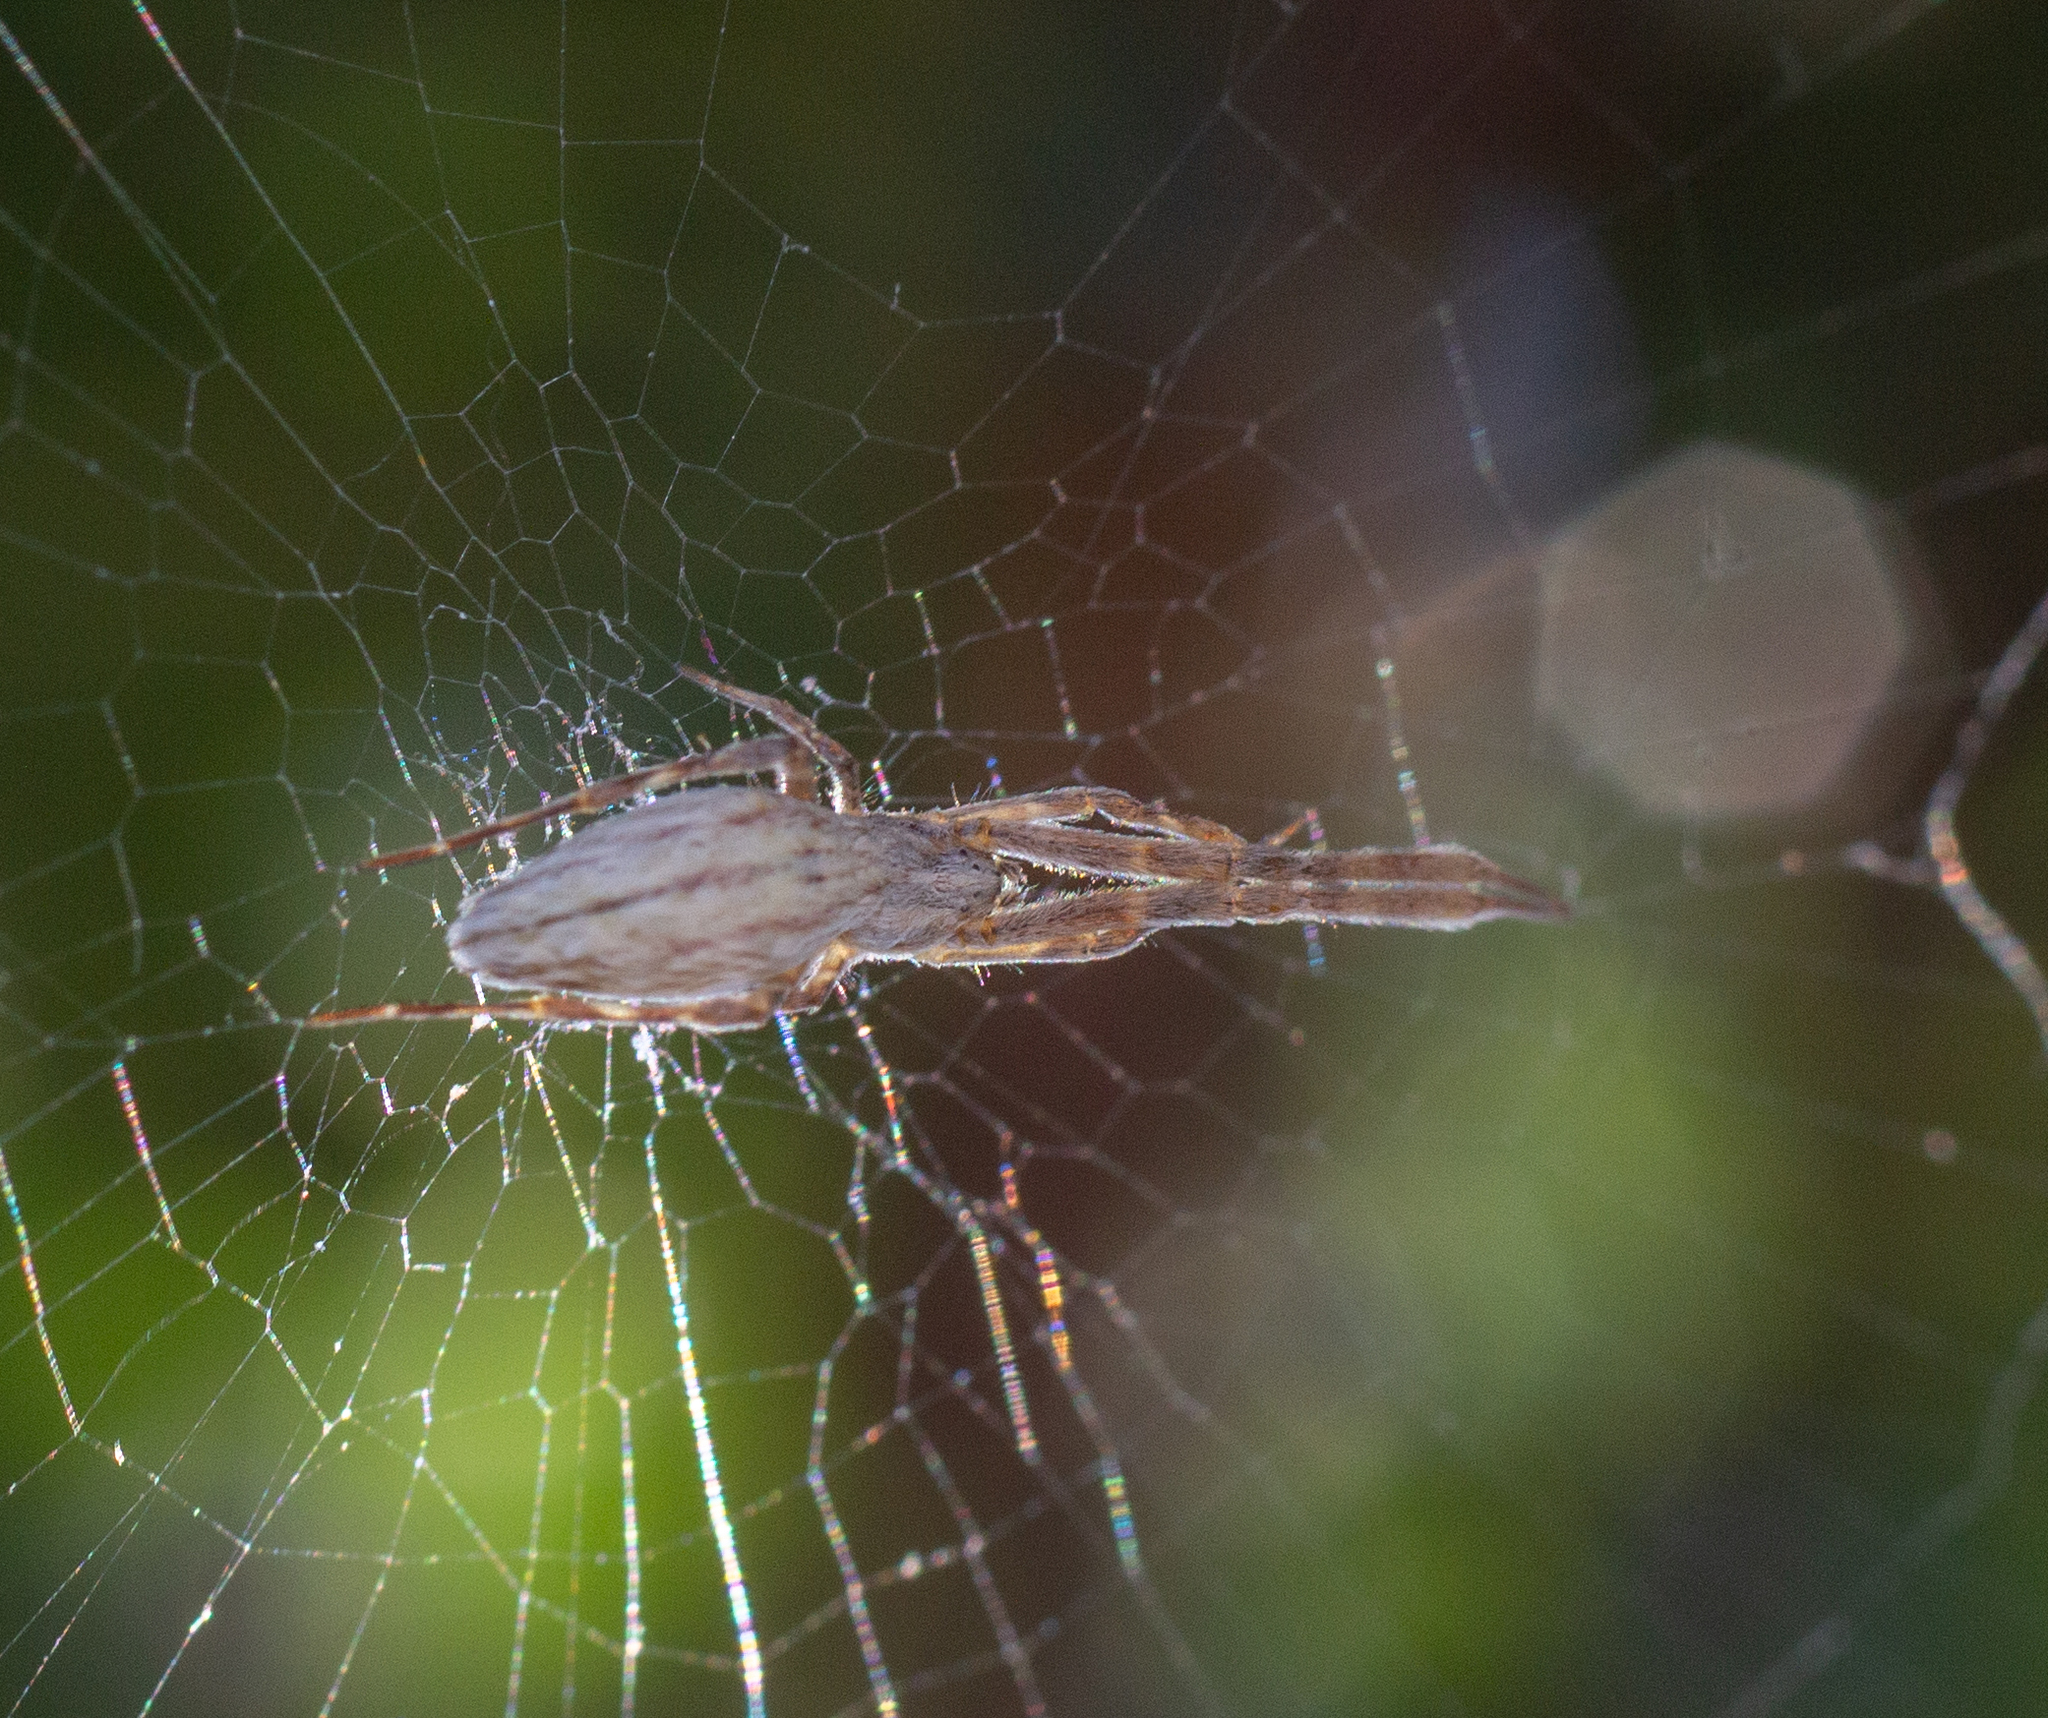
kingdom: Animalia
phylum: Arthropoda
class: Arachnida
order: Araneae
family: Uloboridae
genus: Uloborus
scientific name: Uloborus walckenaerius
